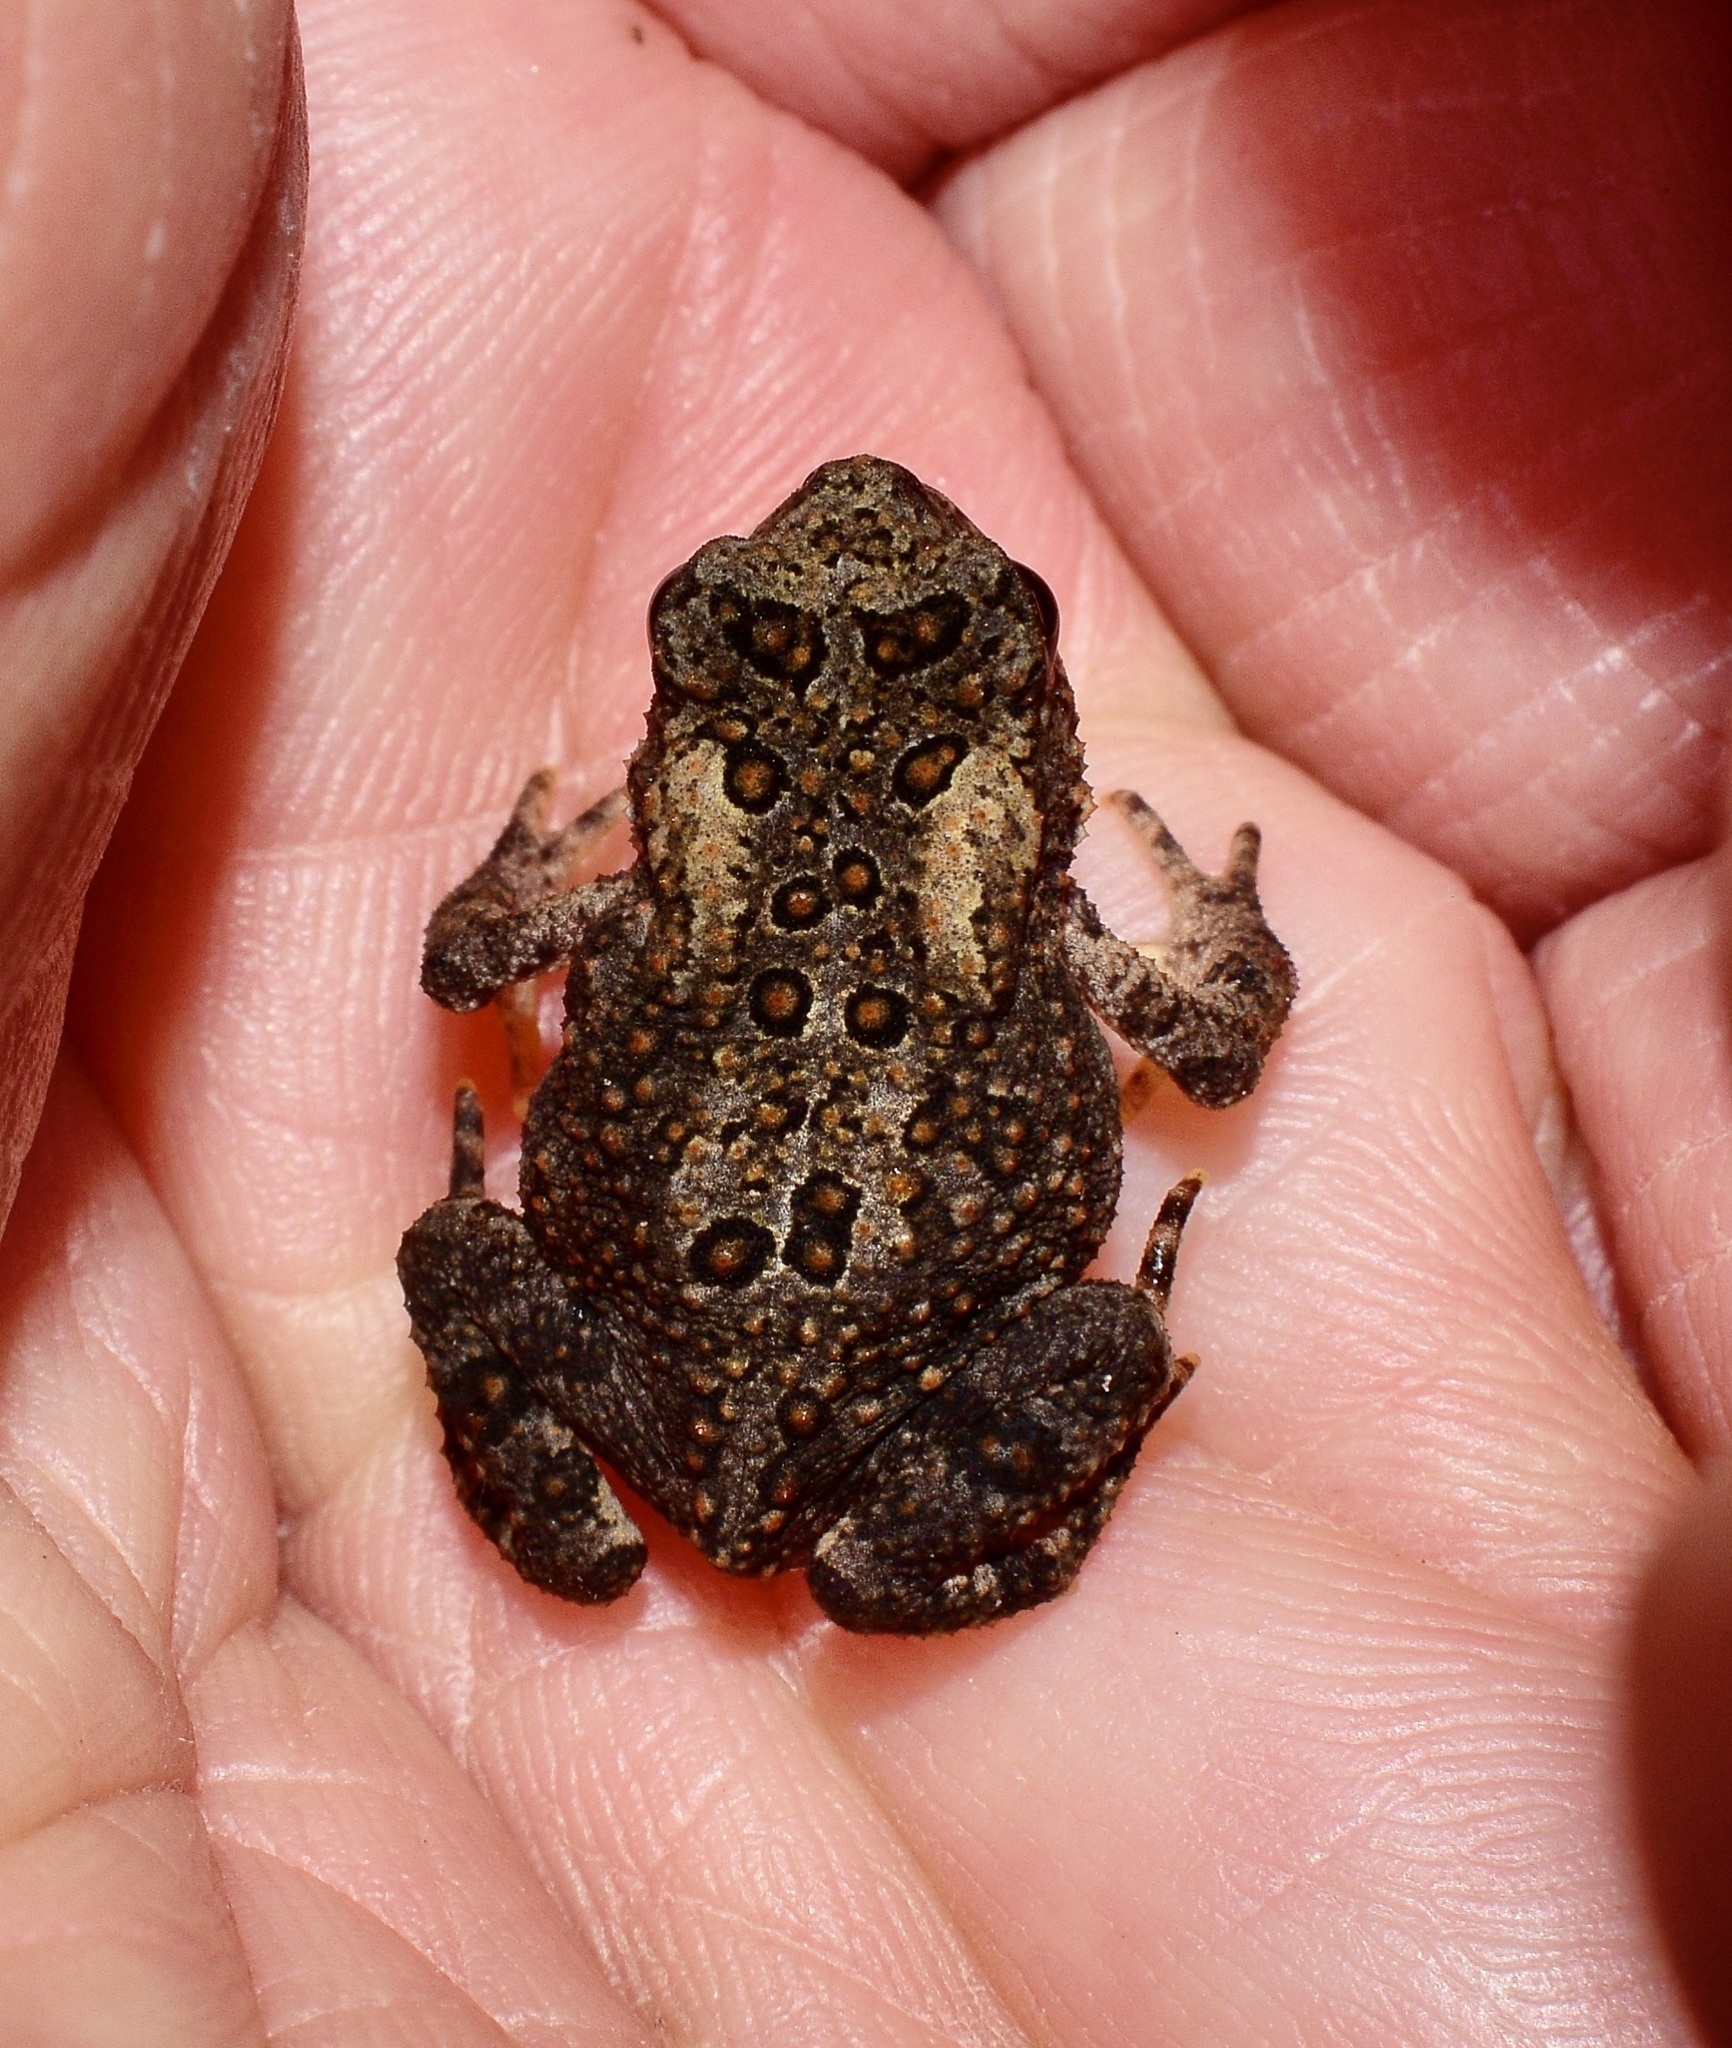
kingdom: Animalia
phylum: Chordata
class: Amphibia
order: Anura
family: Bufonidae
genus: Anaxyrus
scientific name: Anaxyrus americanus
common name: American toad
